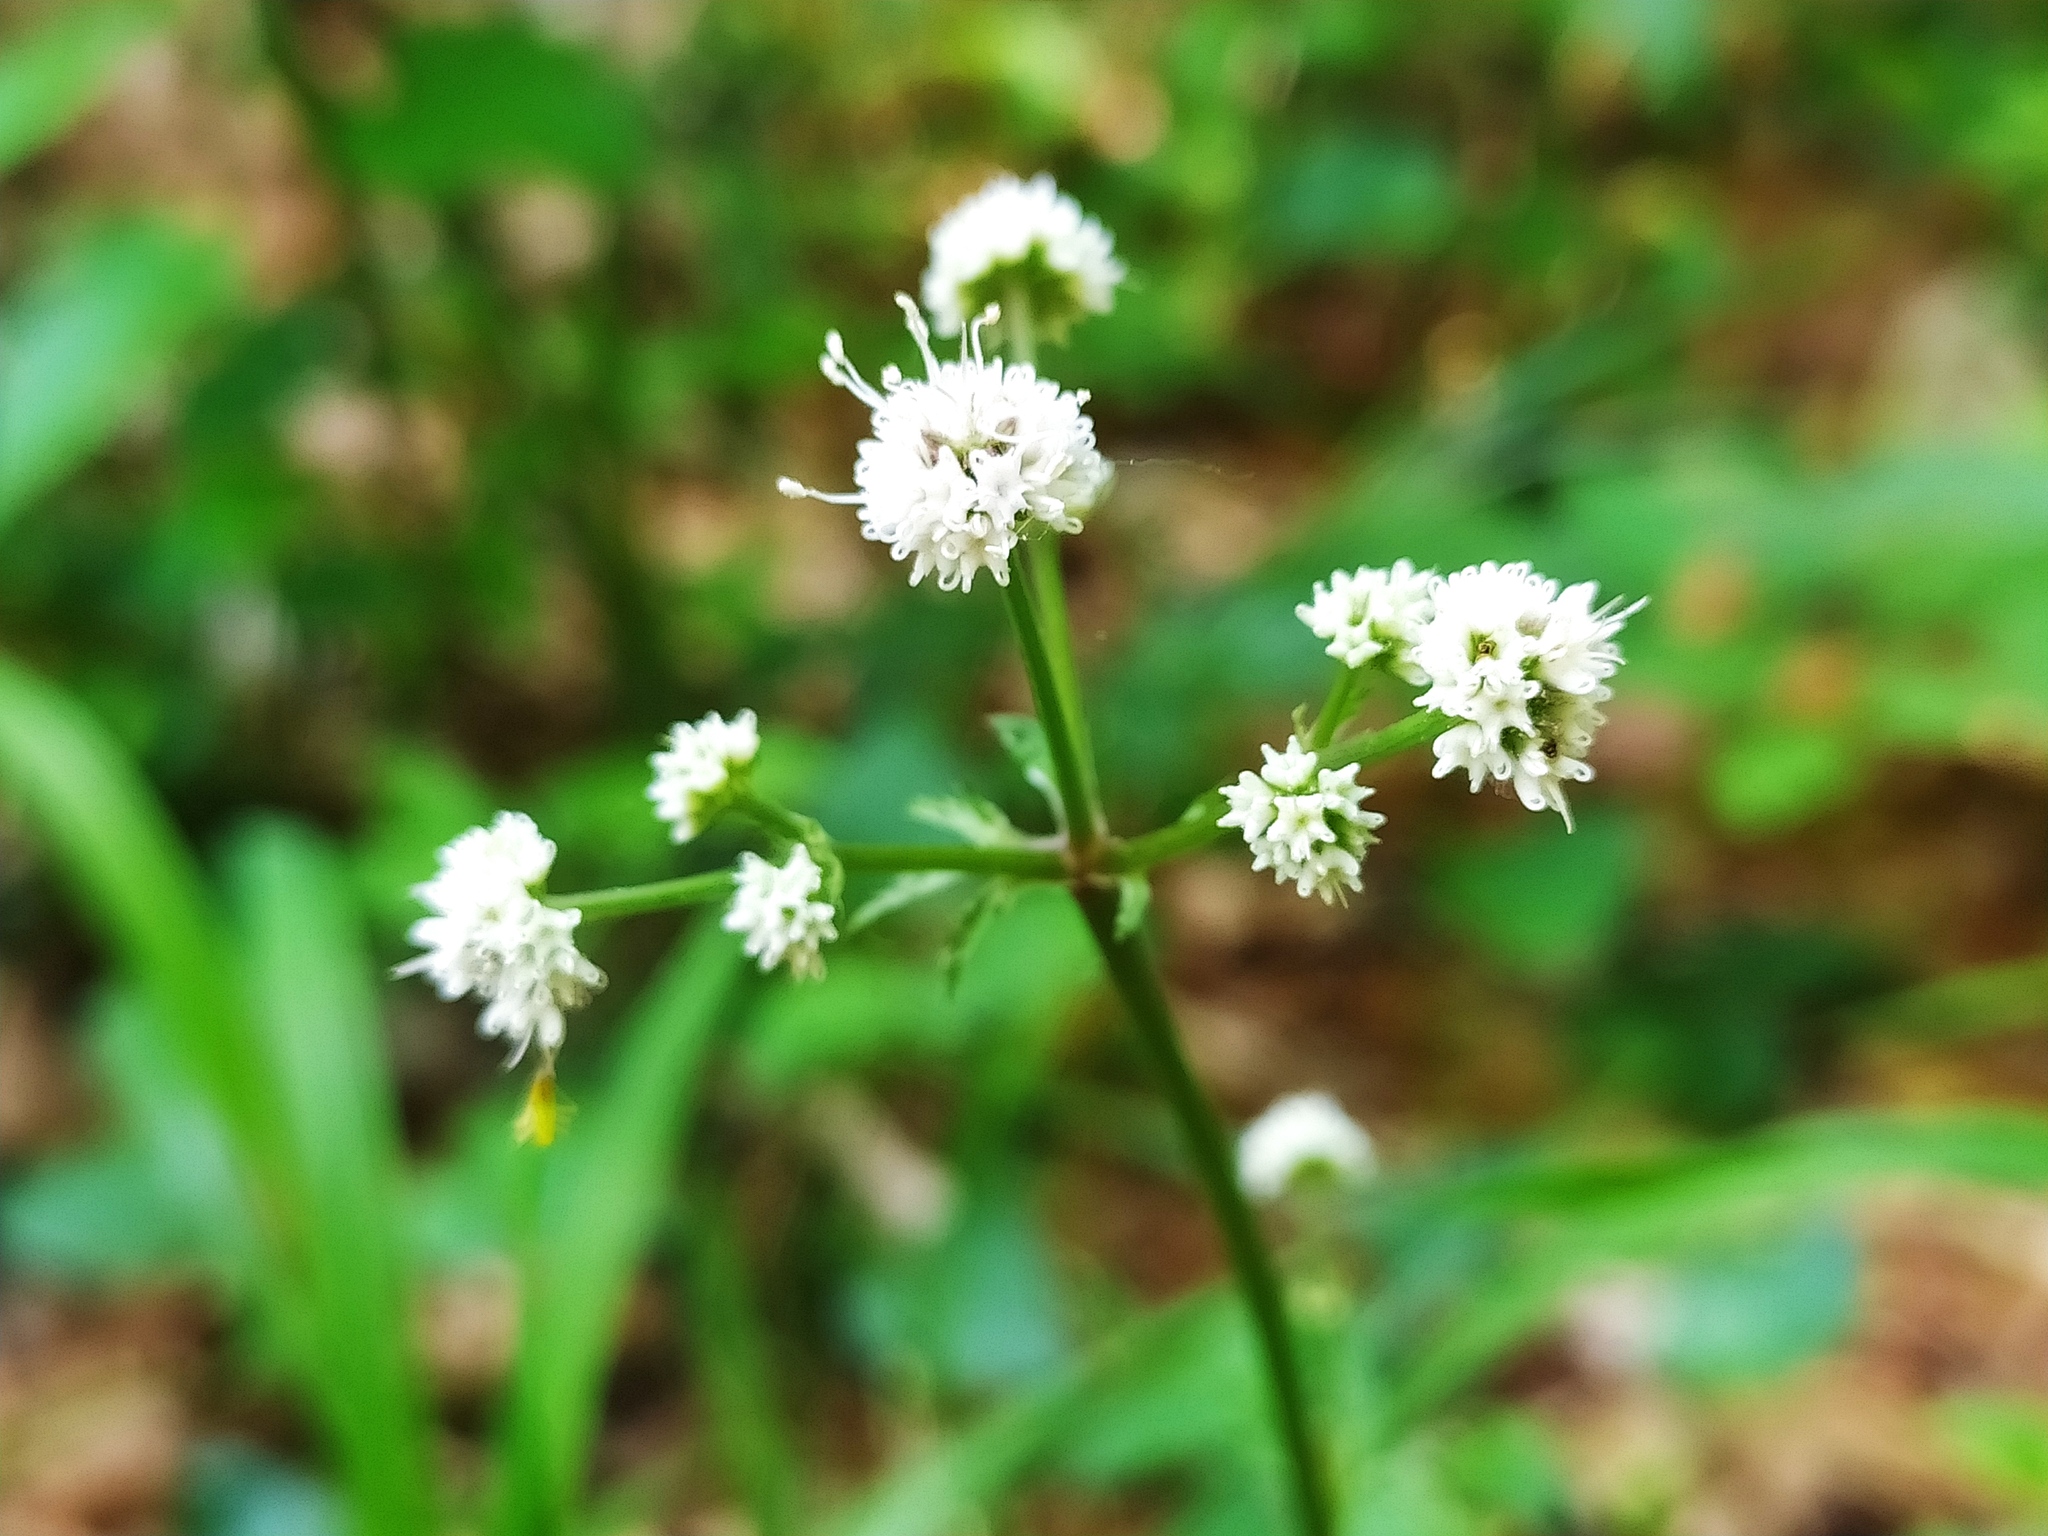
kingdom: Plantae
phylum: Tracheophyta
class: Magnoliopsida
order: Apiales
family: Apiaceae
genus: Sanicula
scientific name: Sanicula europaea
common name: Sanicle
